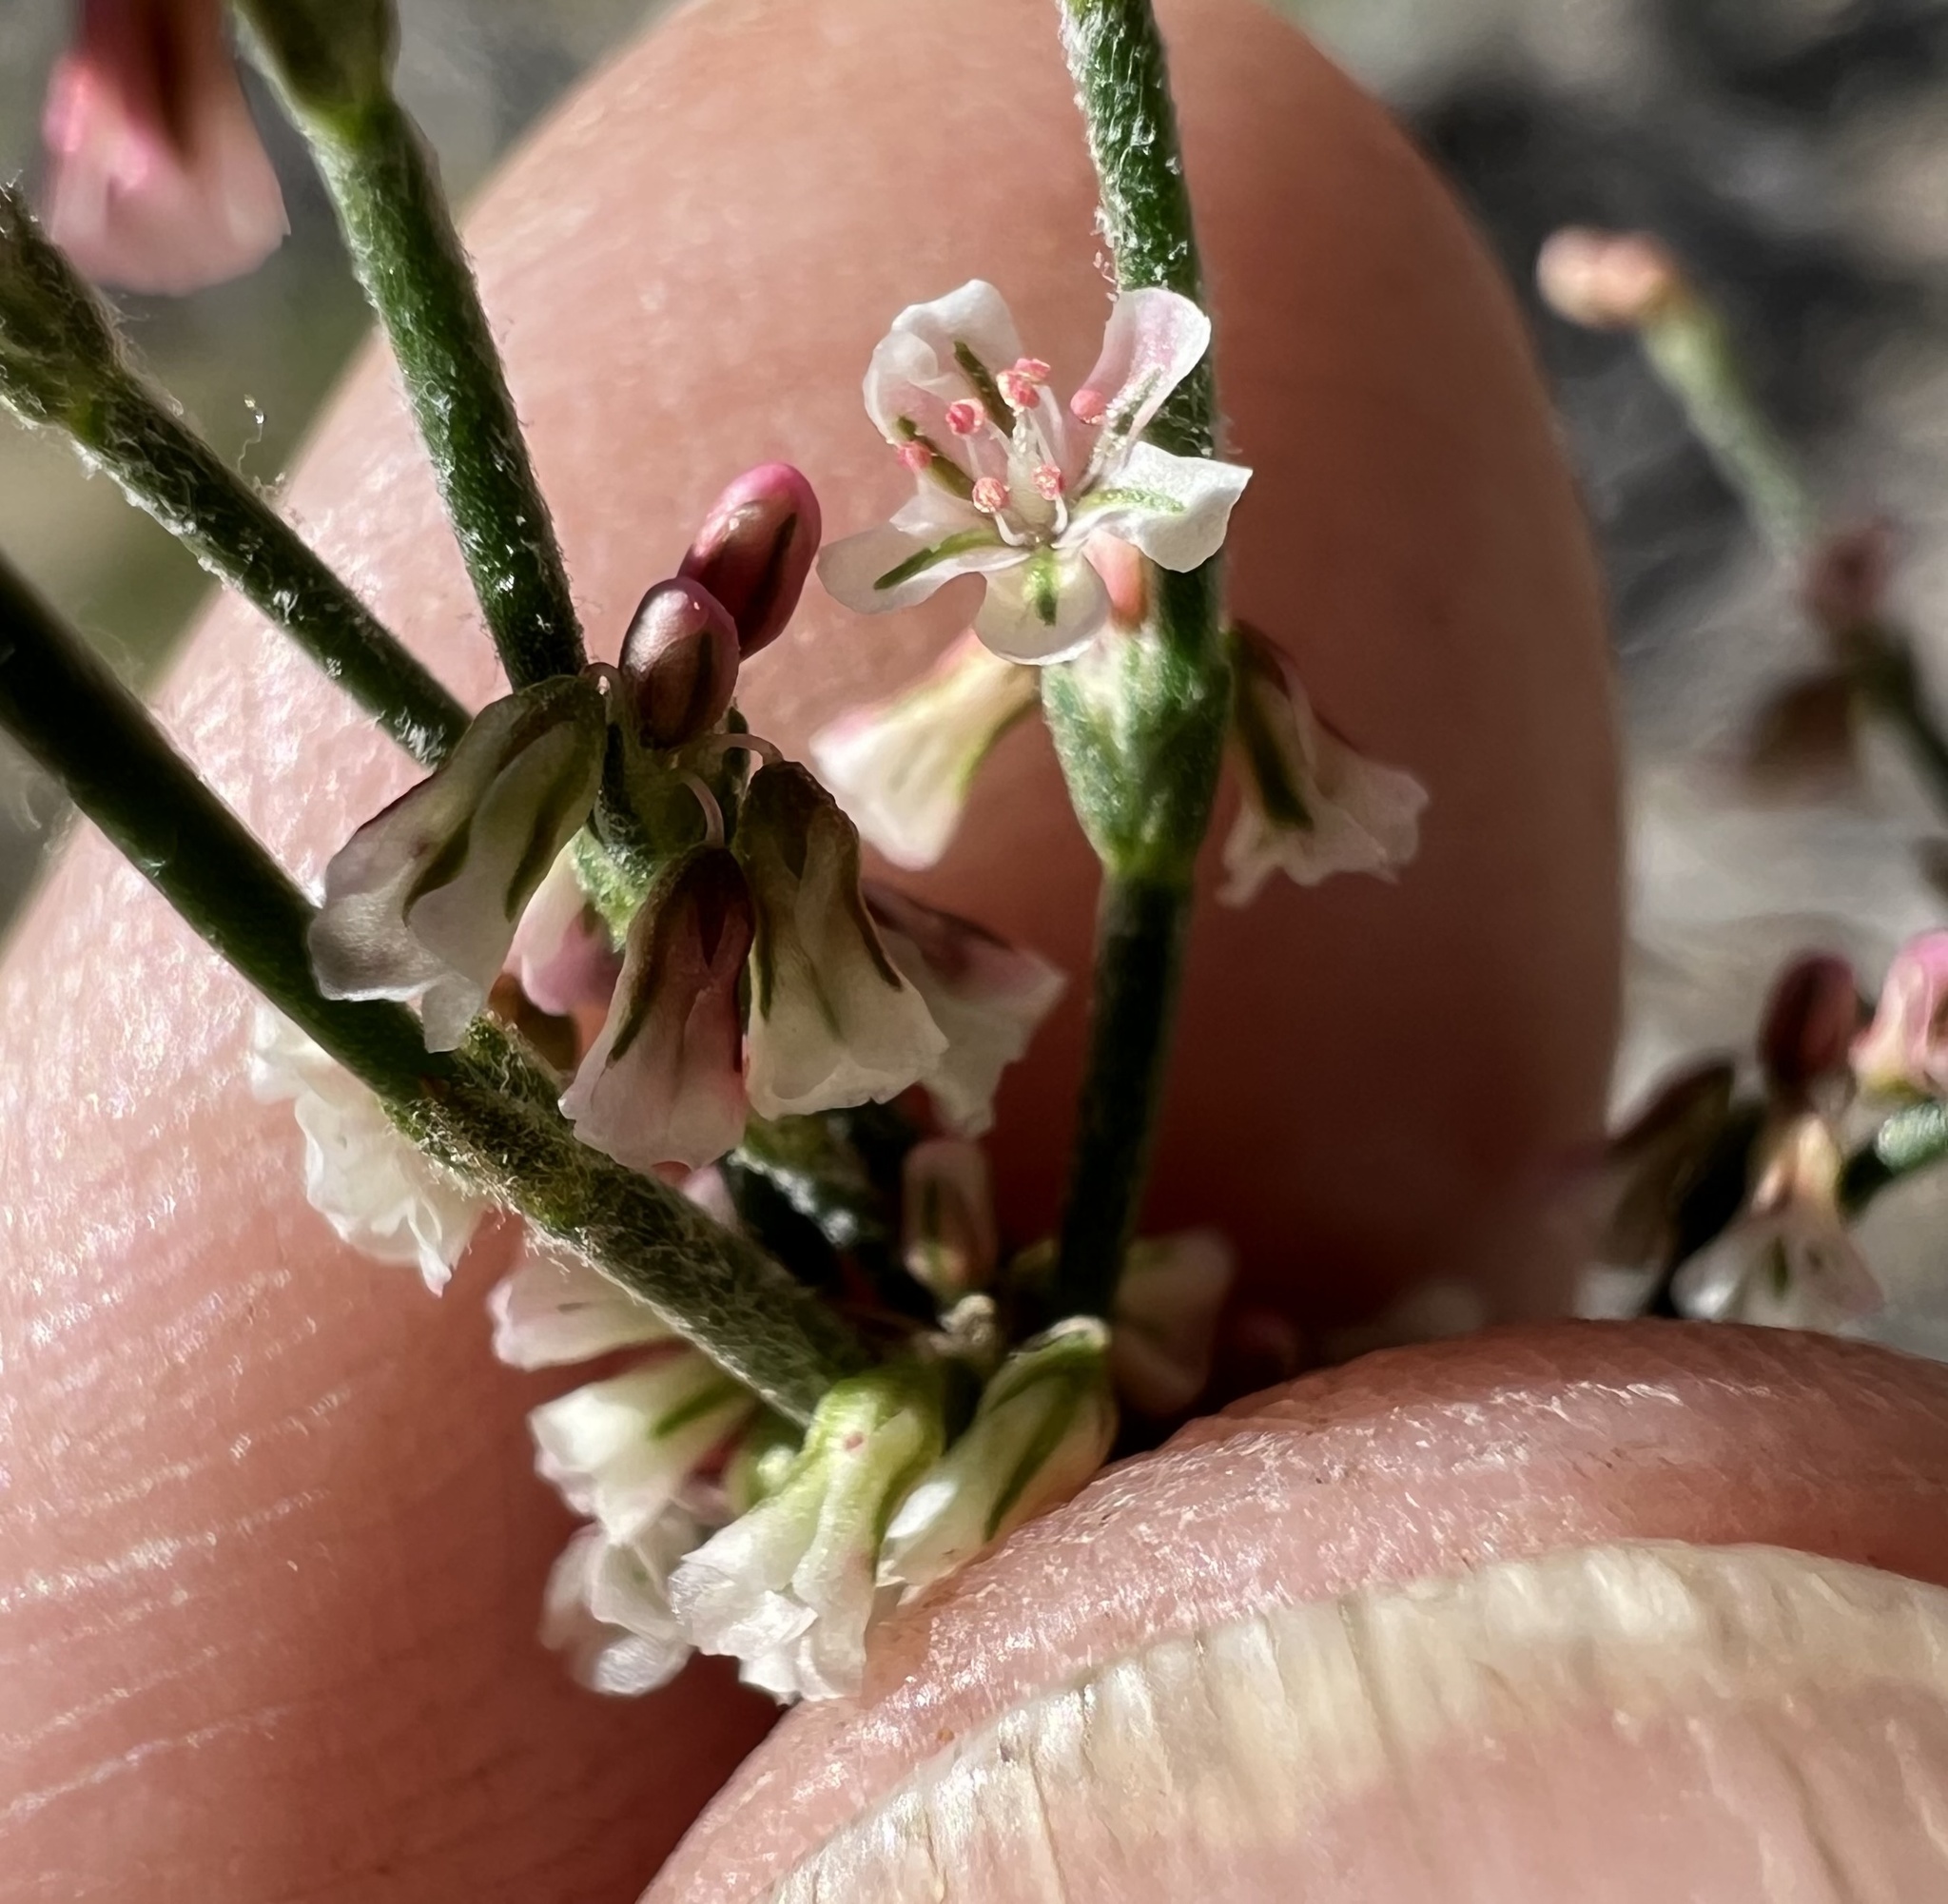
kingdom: Plantae
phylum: Tracheophyta
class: Magnoliopsida
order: Caryophyllales
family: Polygonaceae
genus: Eriogonum
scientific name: Eriogonum palmerianum
